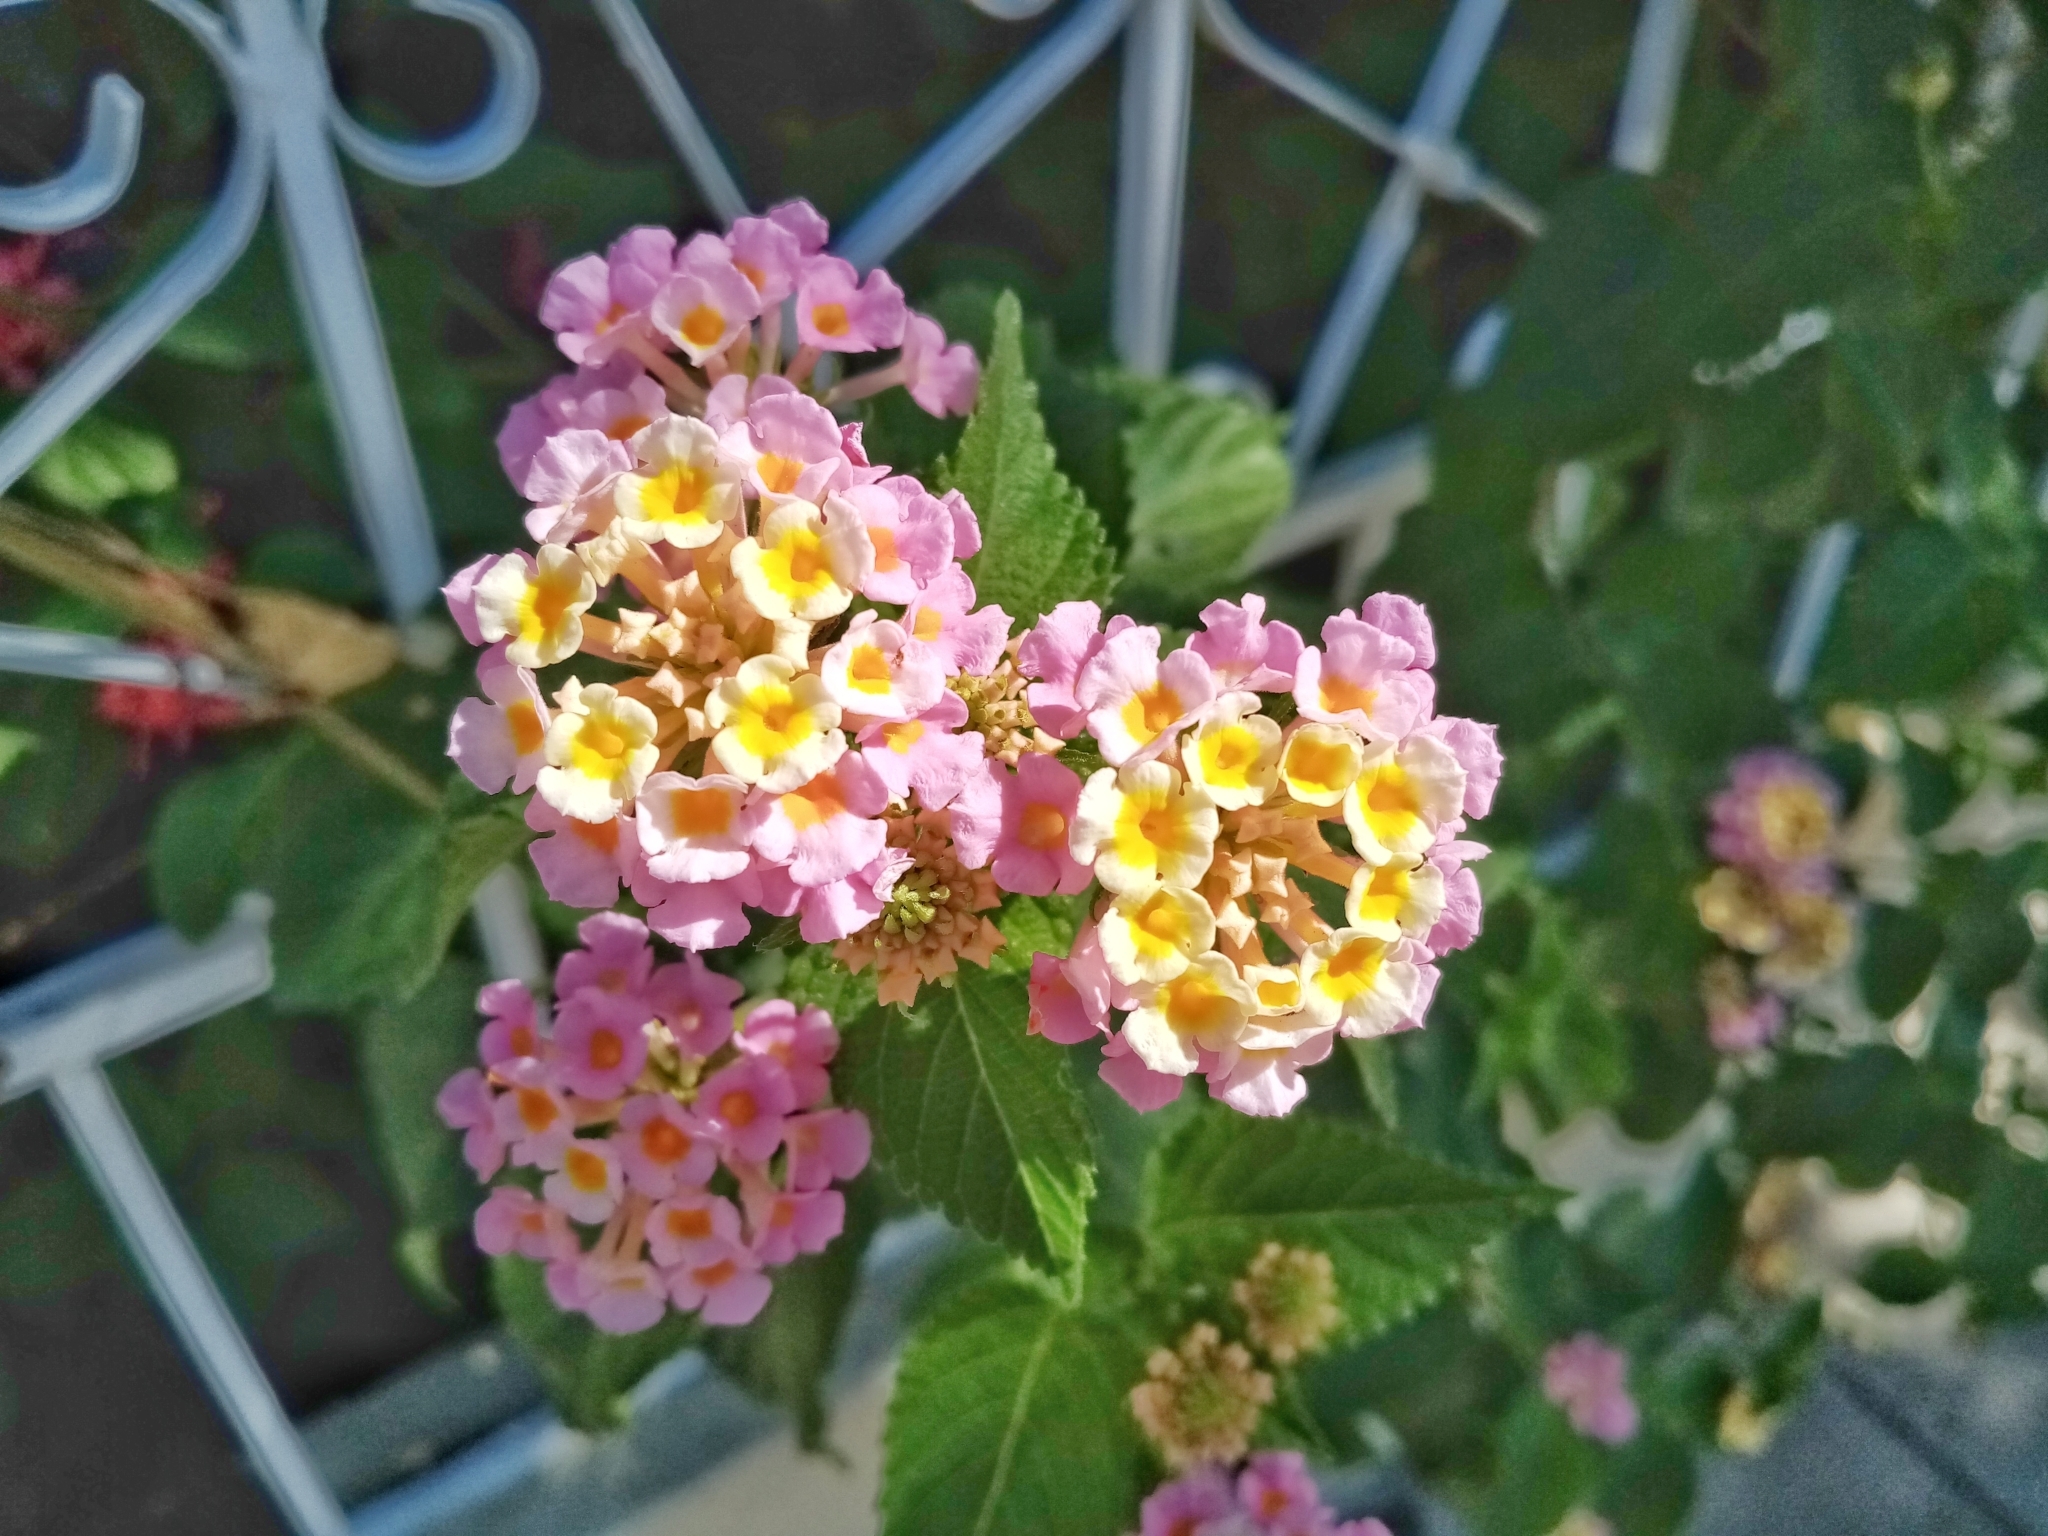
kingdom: Plantae
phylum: Tracheophyta
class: Magnoliopsida
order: Lamiales
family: Verbenaceae
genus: Lantana
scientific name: Lantana camara
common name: Lantana
